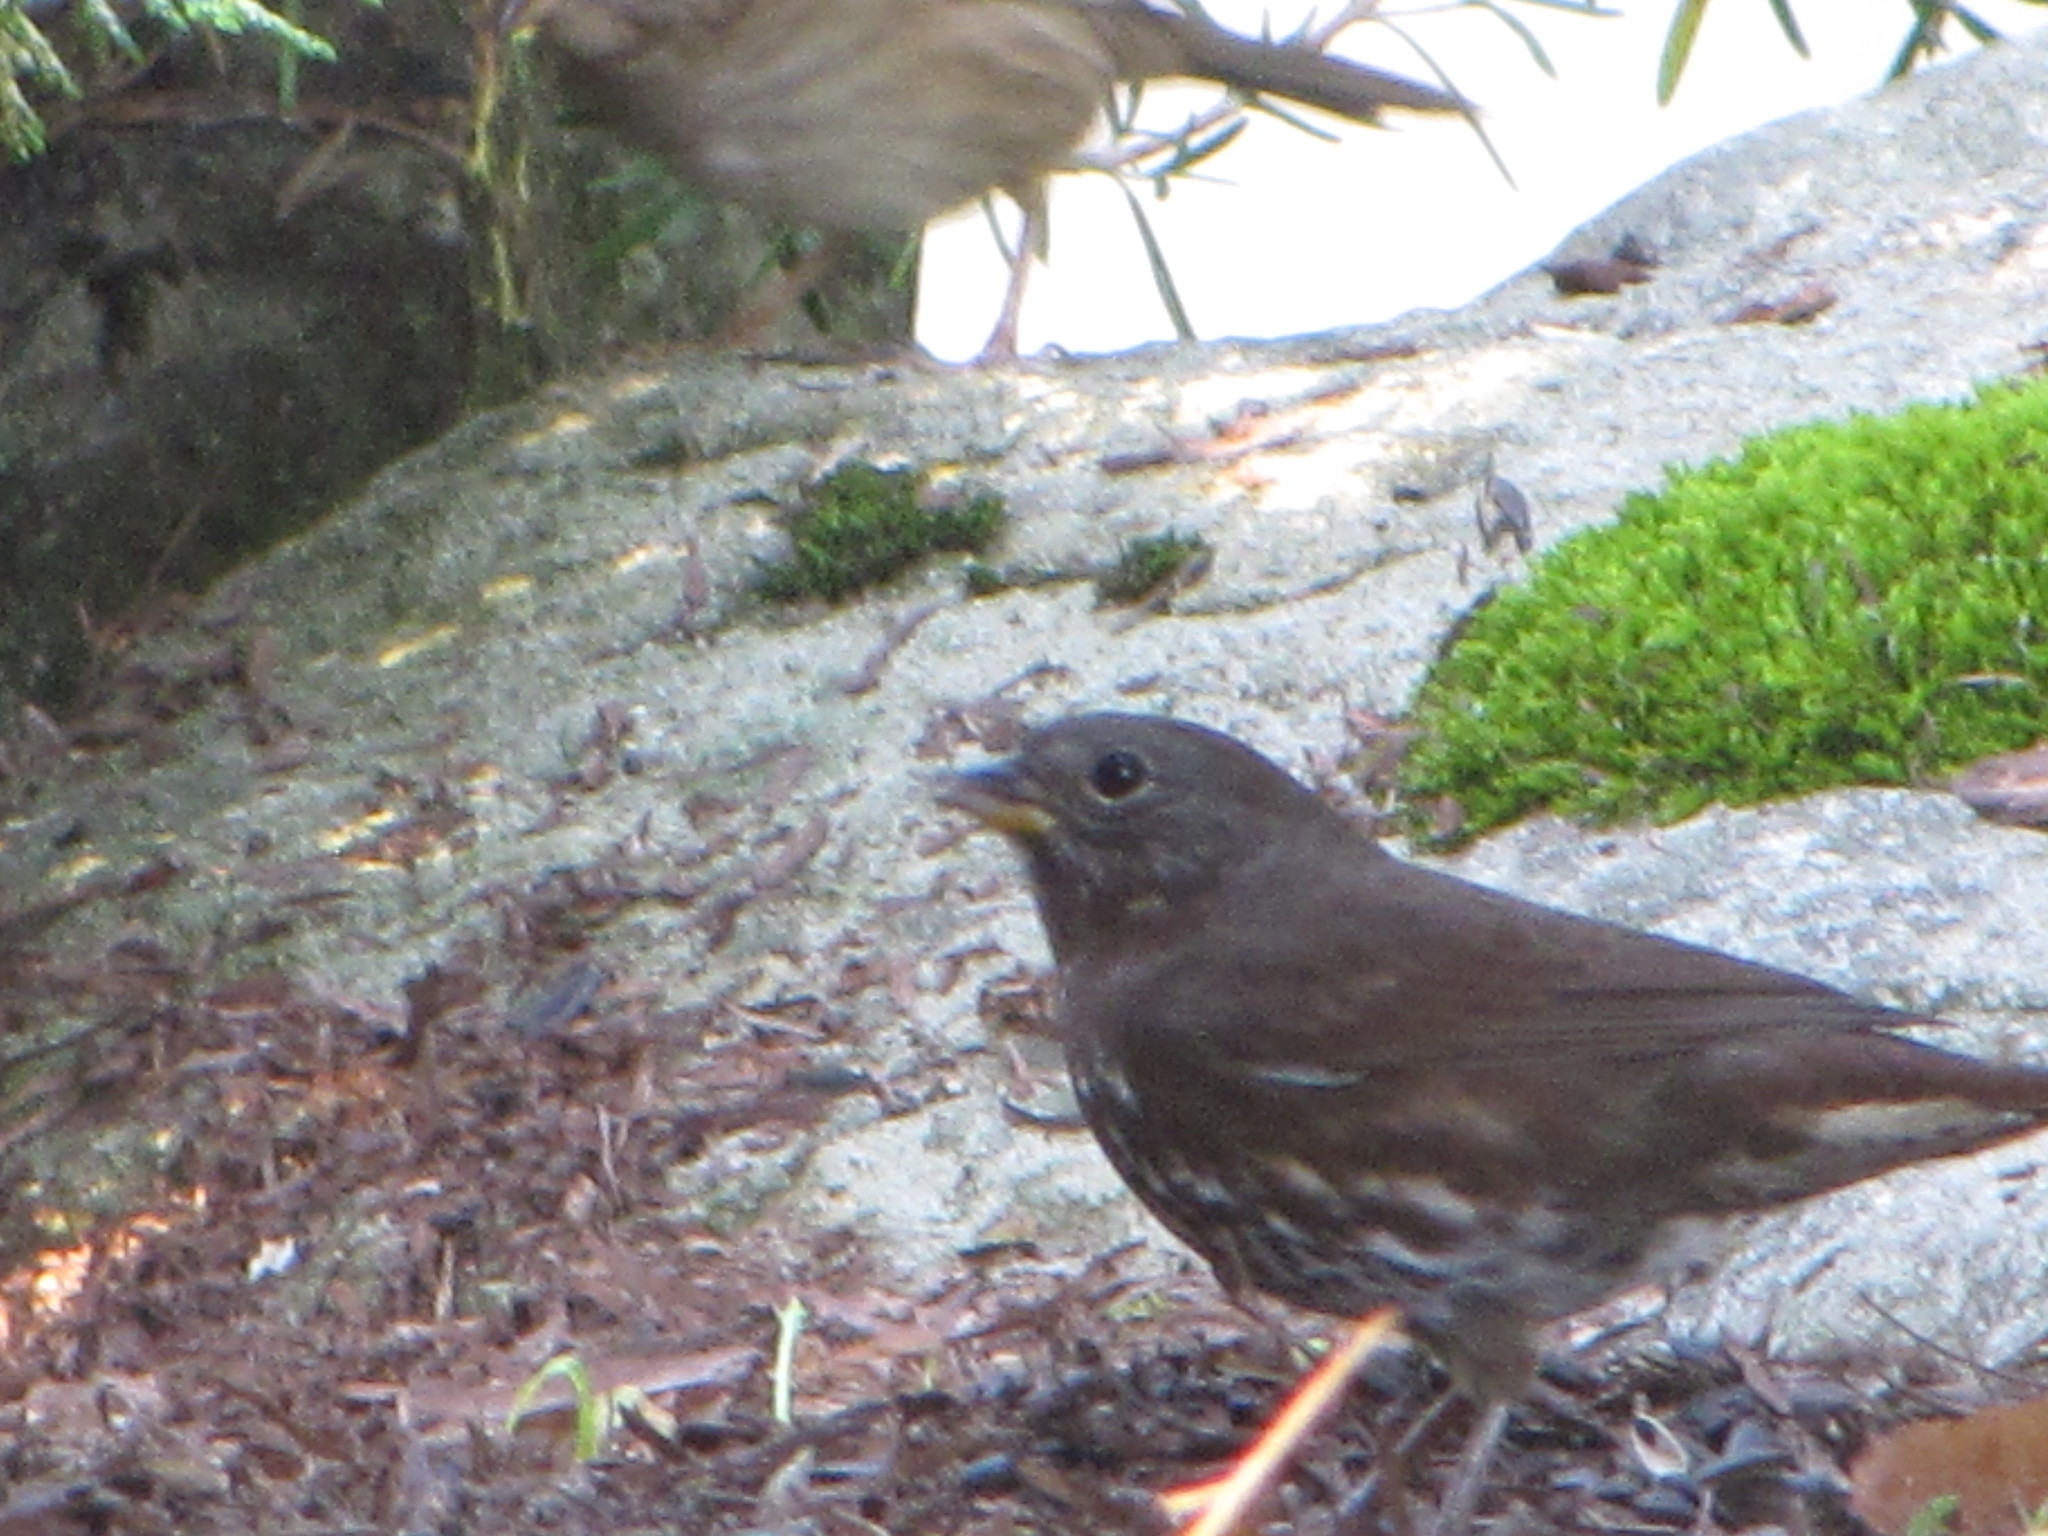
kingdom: Animalia
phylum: Chordata
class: Aves
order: Passeriformes
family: Passerellidae
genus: Passerella
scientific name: Passerella iliaca
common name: Fox sparrow
